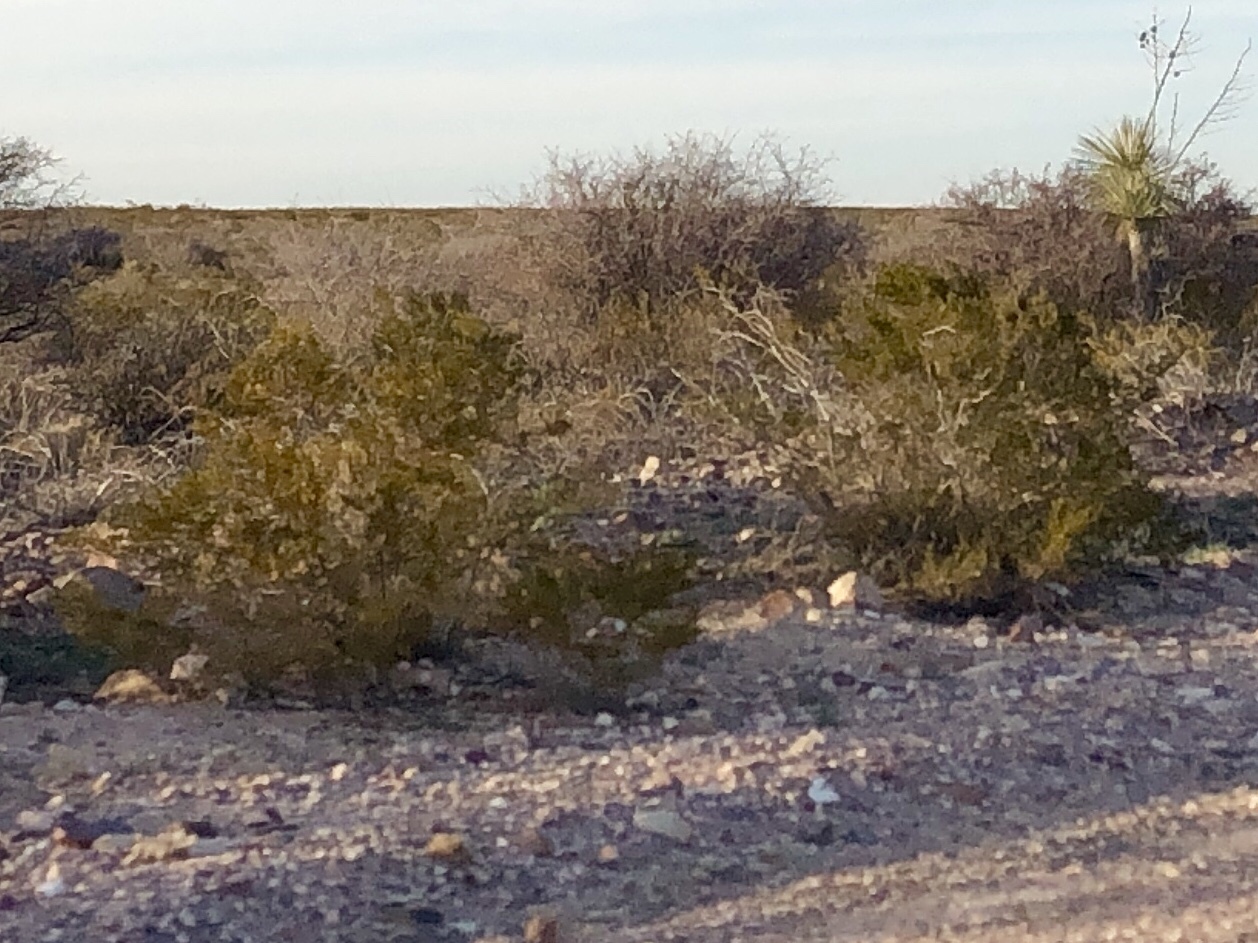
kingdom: Plantae
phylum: Tracheophyta
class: Magnoliopsida
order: Zygophyllales
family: Zygophyllaceae
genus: Larrea
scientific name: Larrea tridentata
